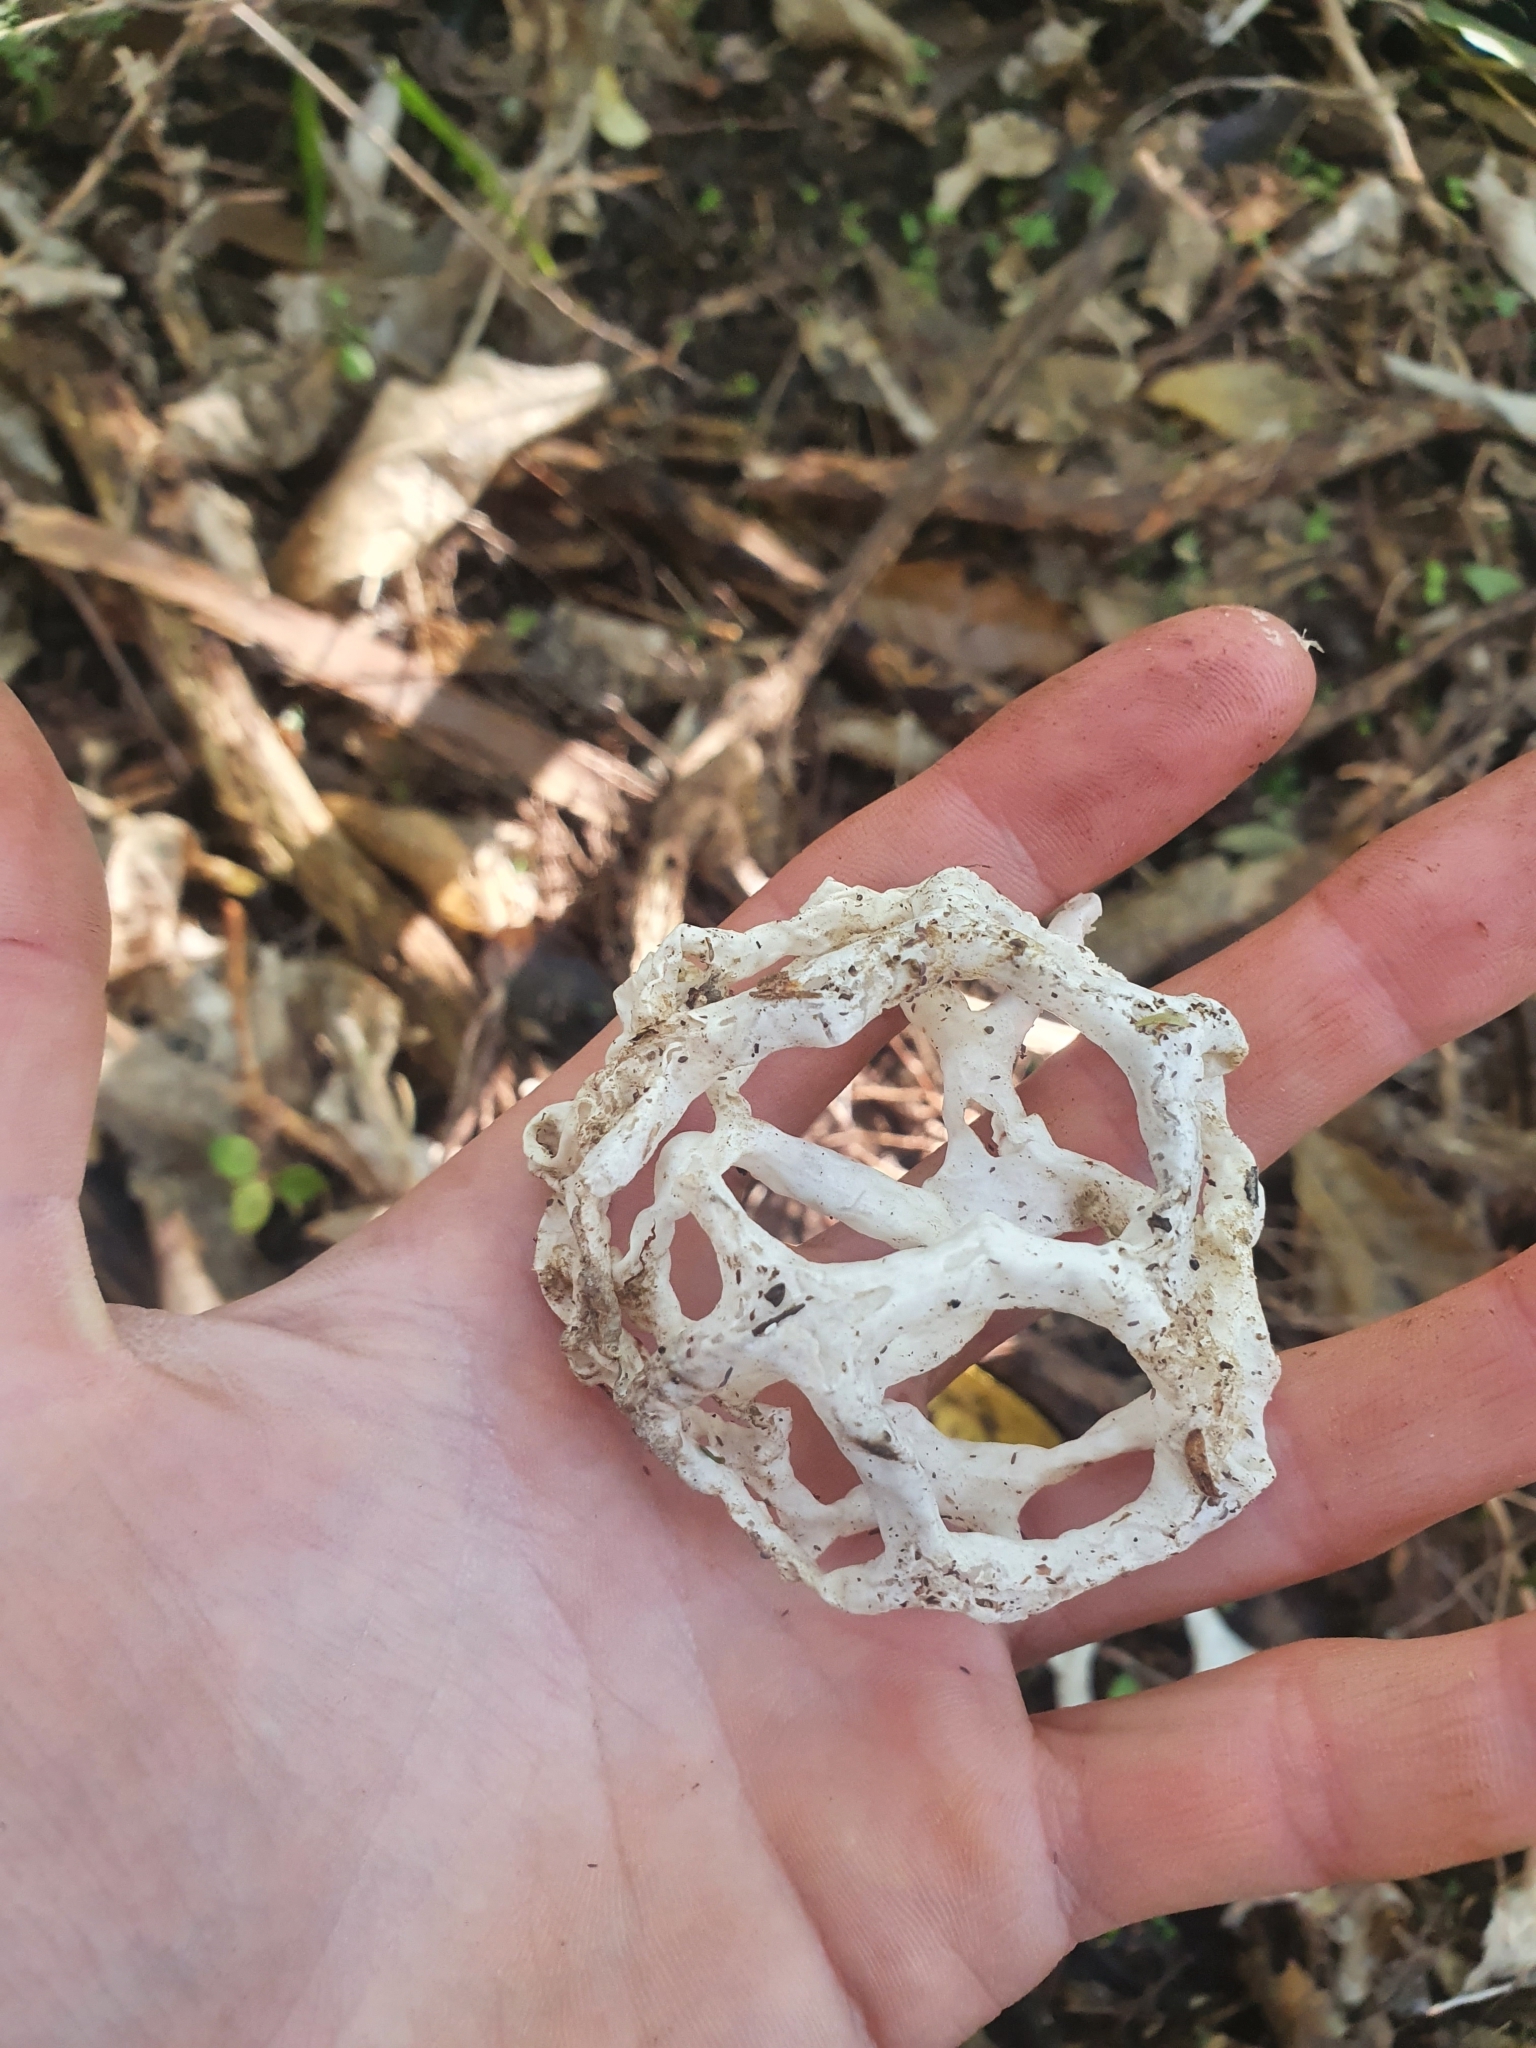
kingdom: Fungi
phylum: Basidiomycota
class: Agaricomycetes
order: Phallales
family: Phallaceae
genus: Ileodictyon
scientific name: Ileodictyon cibarium
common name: Basket fungus
